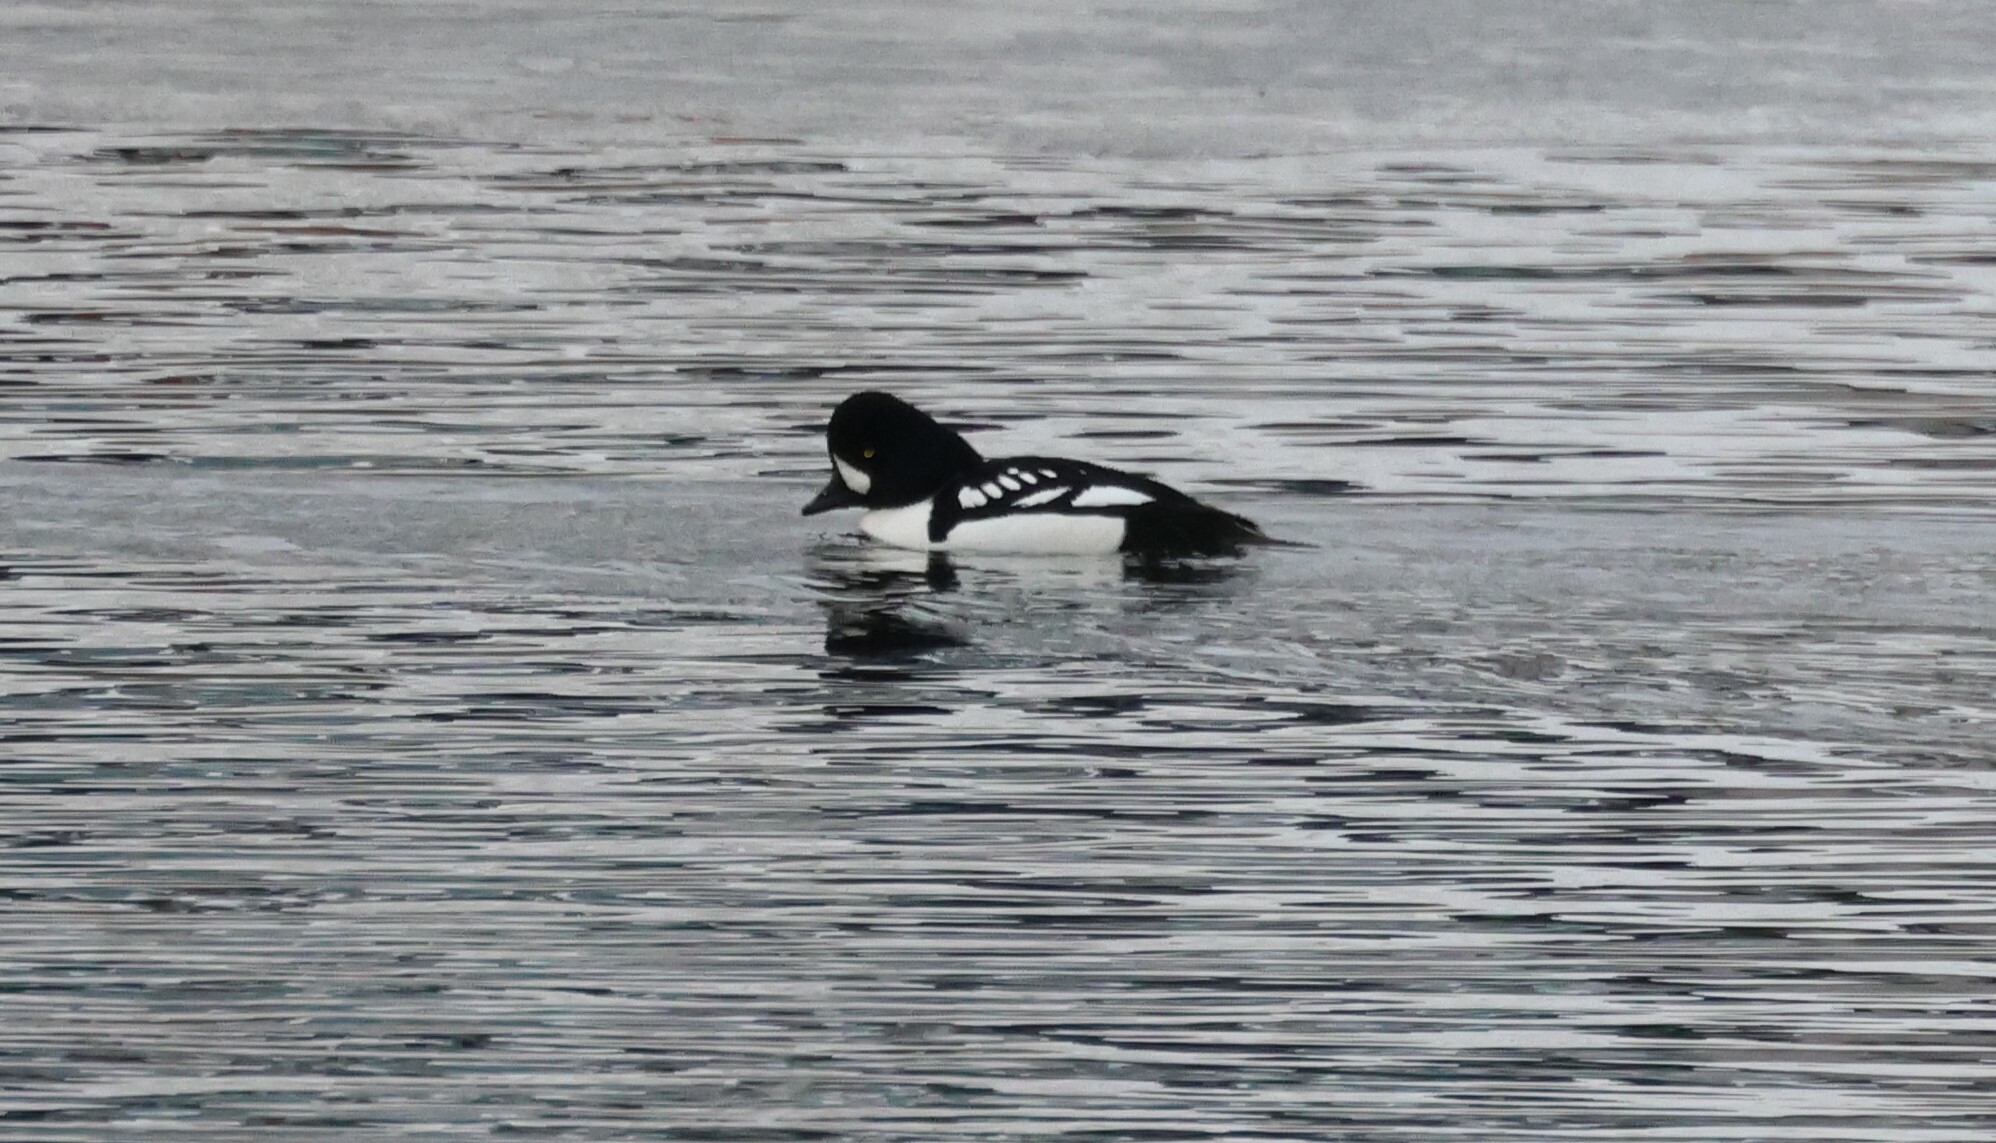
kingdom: Animalia
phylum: Chordata
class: Aves
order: Anseriformes
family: Anatidae
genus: Bucephala
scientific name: Bucephala islandica
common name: Barrow's goldeneye
